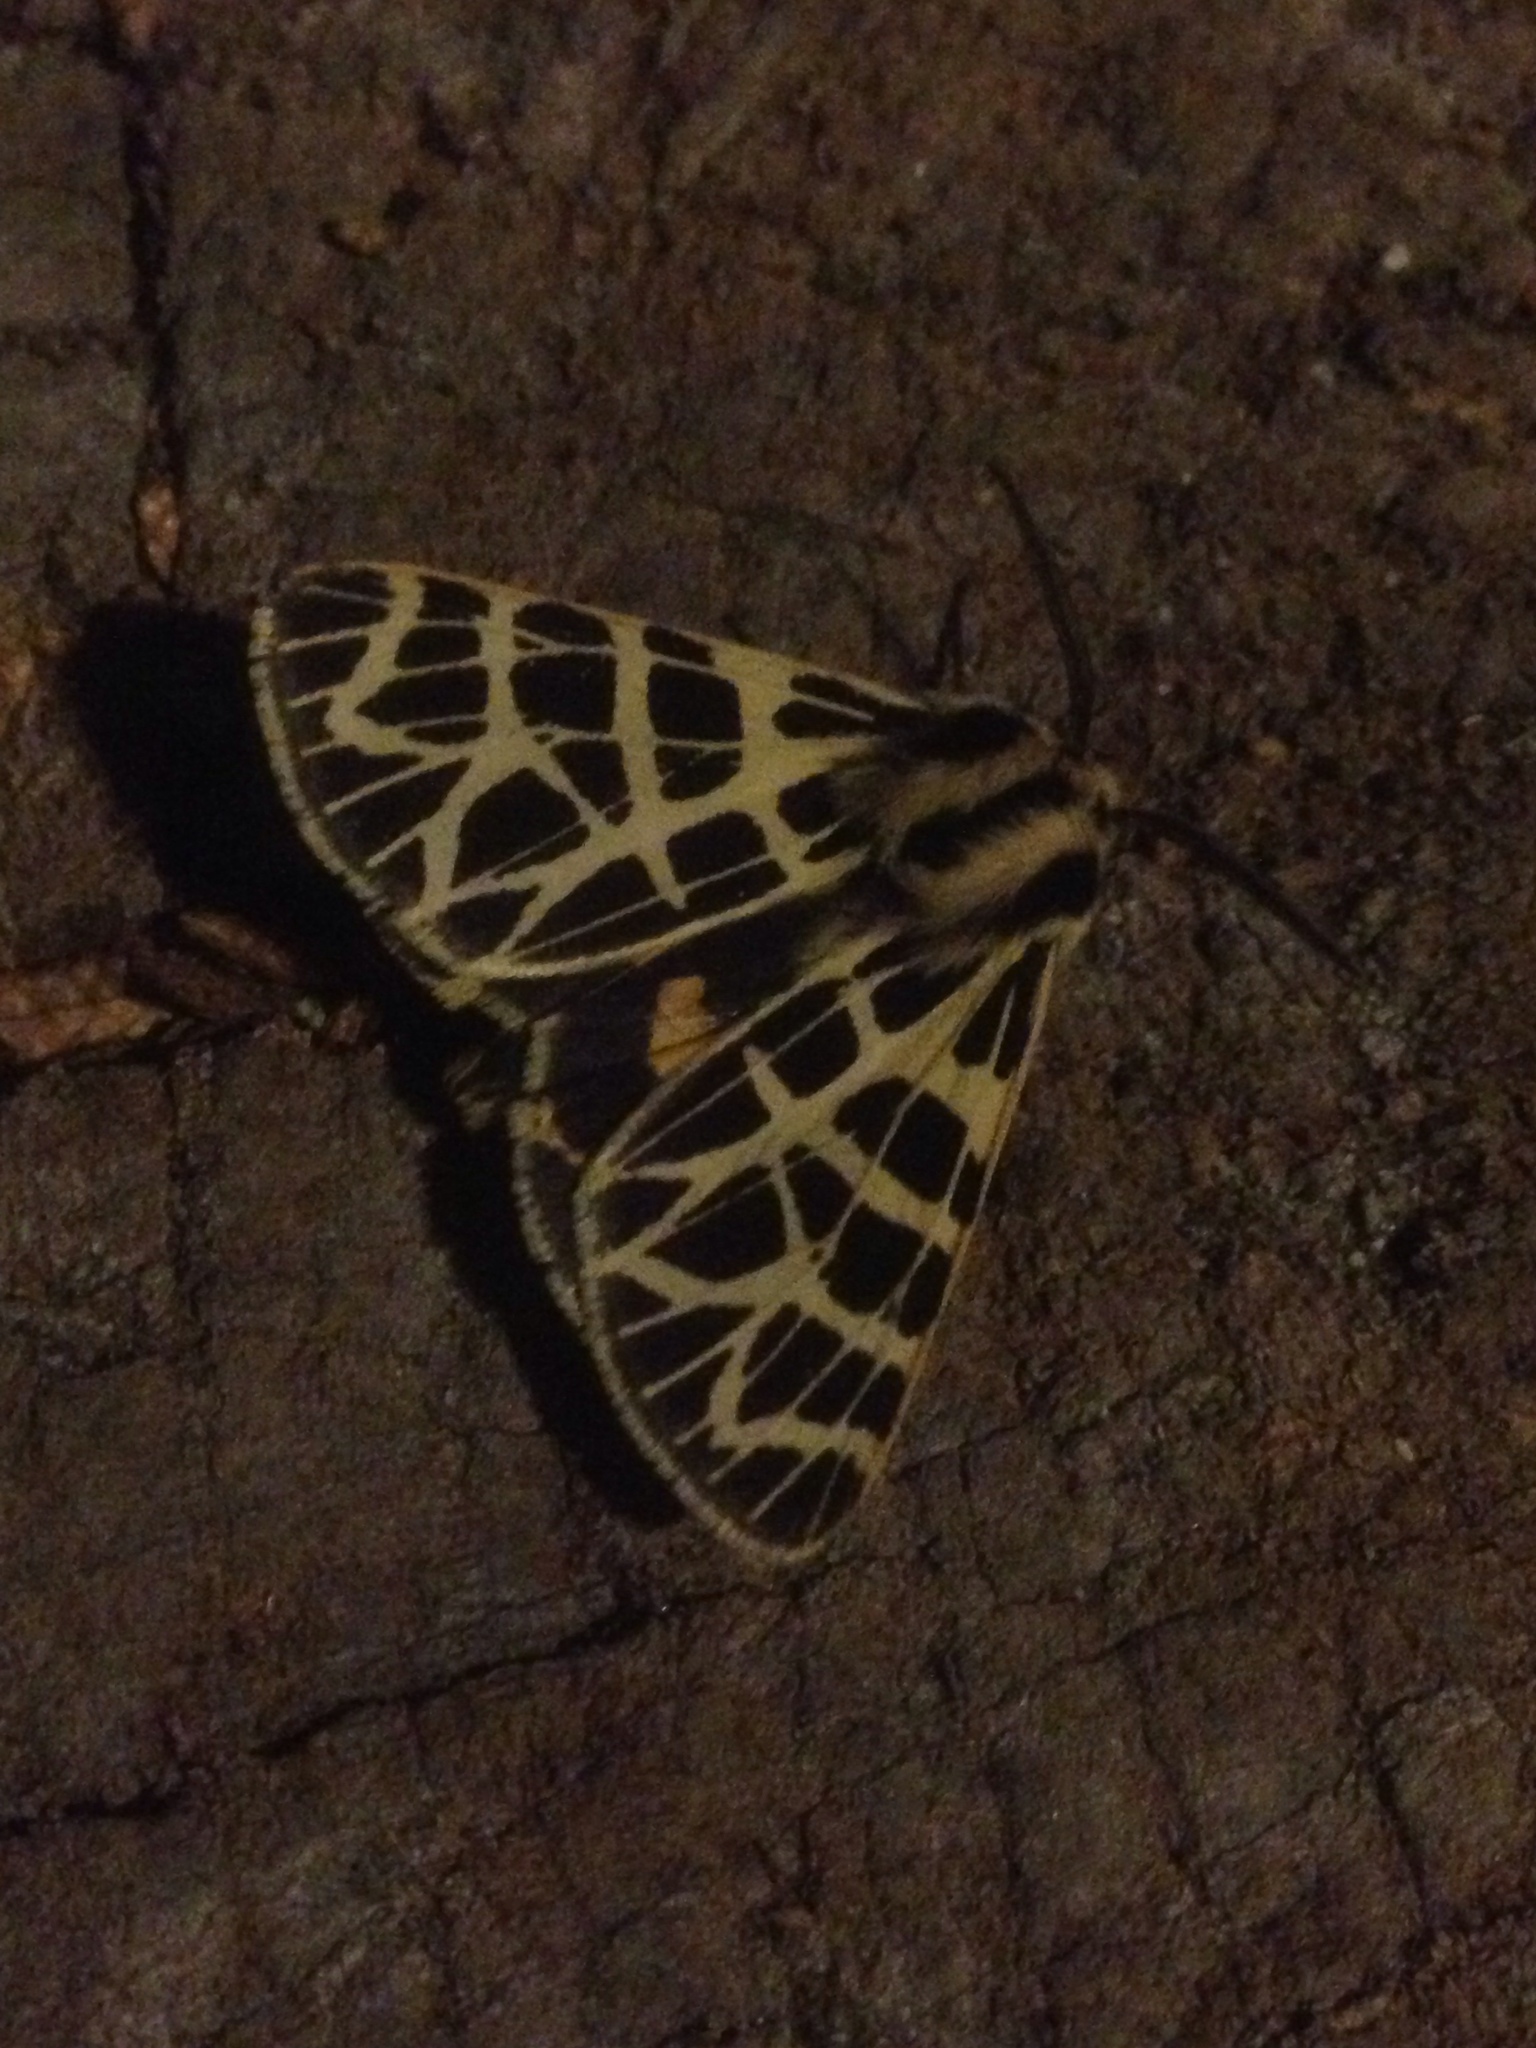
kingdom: Animalia
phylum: Arthropoda
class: Insecta
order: Lepidoptera
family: Erebidae
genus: Apantesis
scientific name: Apantesis
